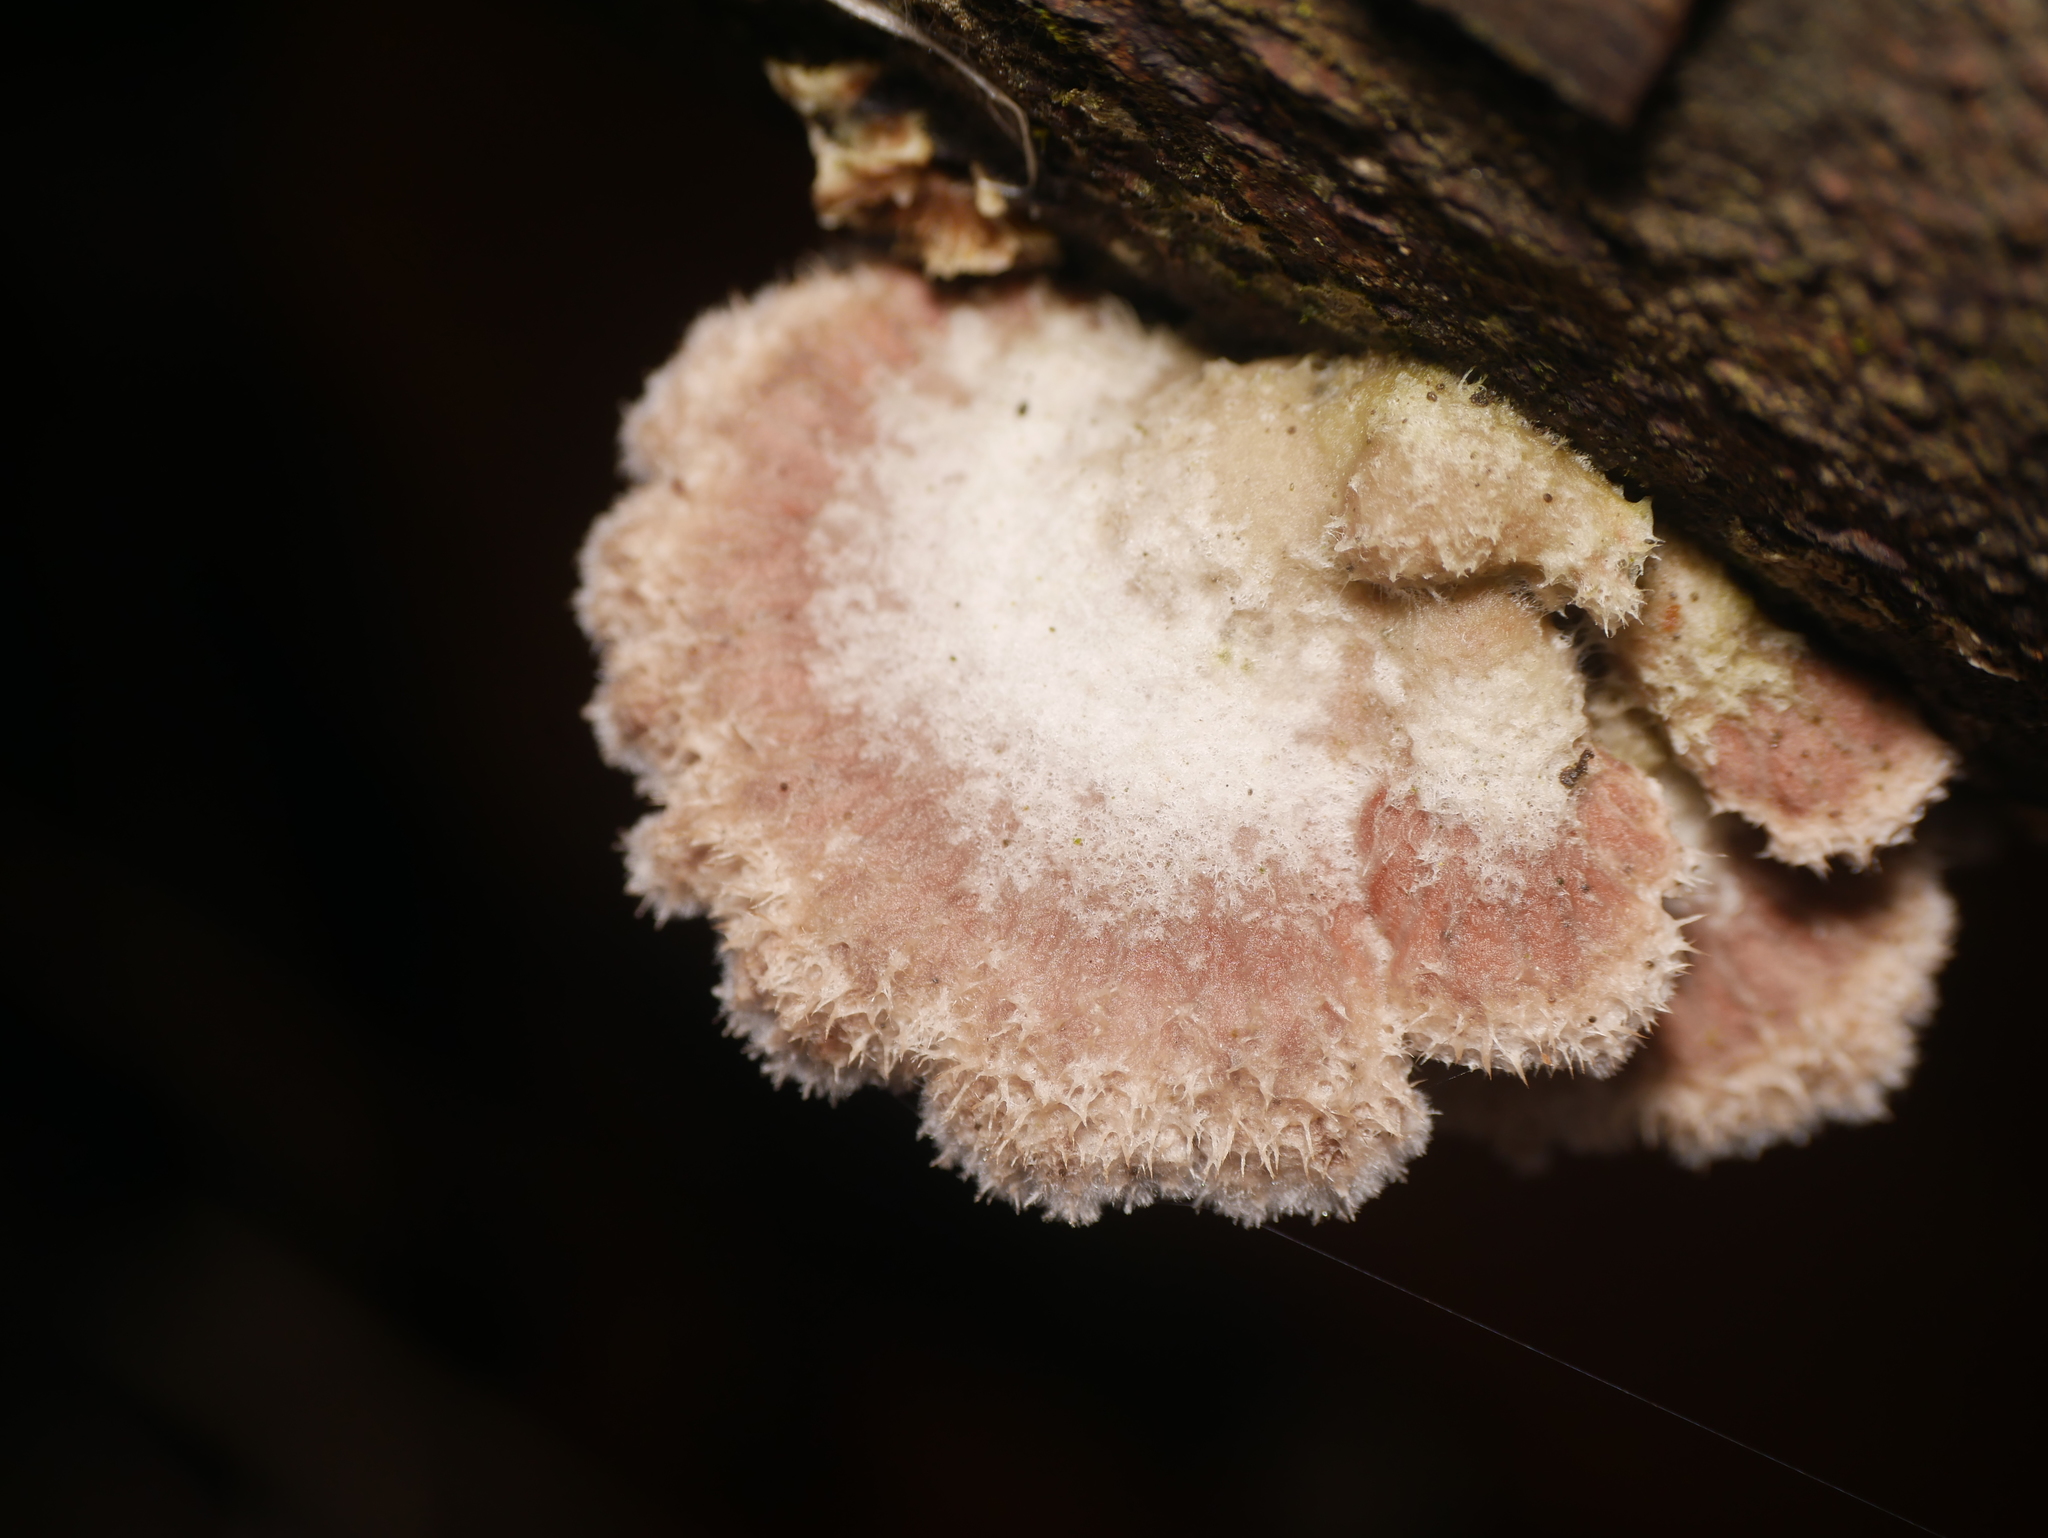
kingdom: Fungi
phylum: Basidiomycota
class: Agaricomycetes
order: Agaricales
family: Schizophyllaceae
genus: Schizophyllum
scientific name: Schizophyllum commune
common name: Common porecrust
